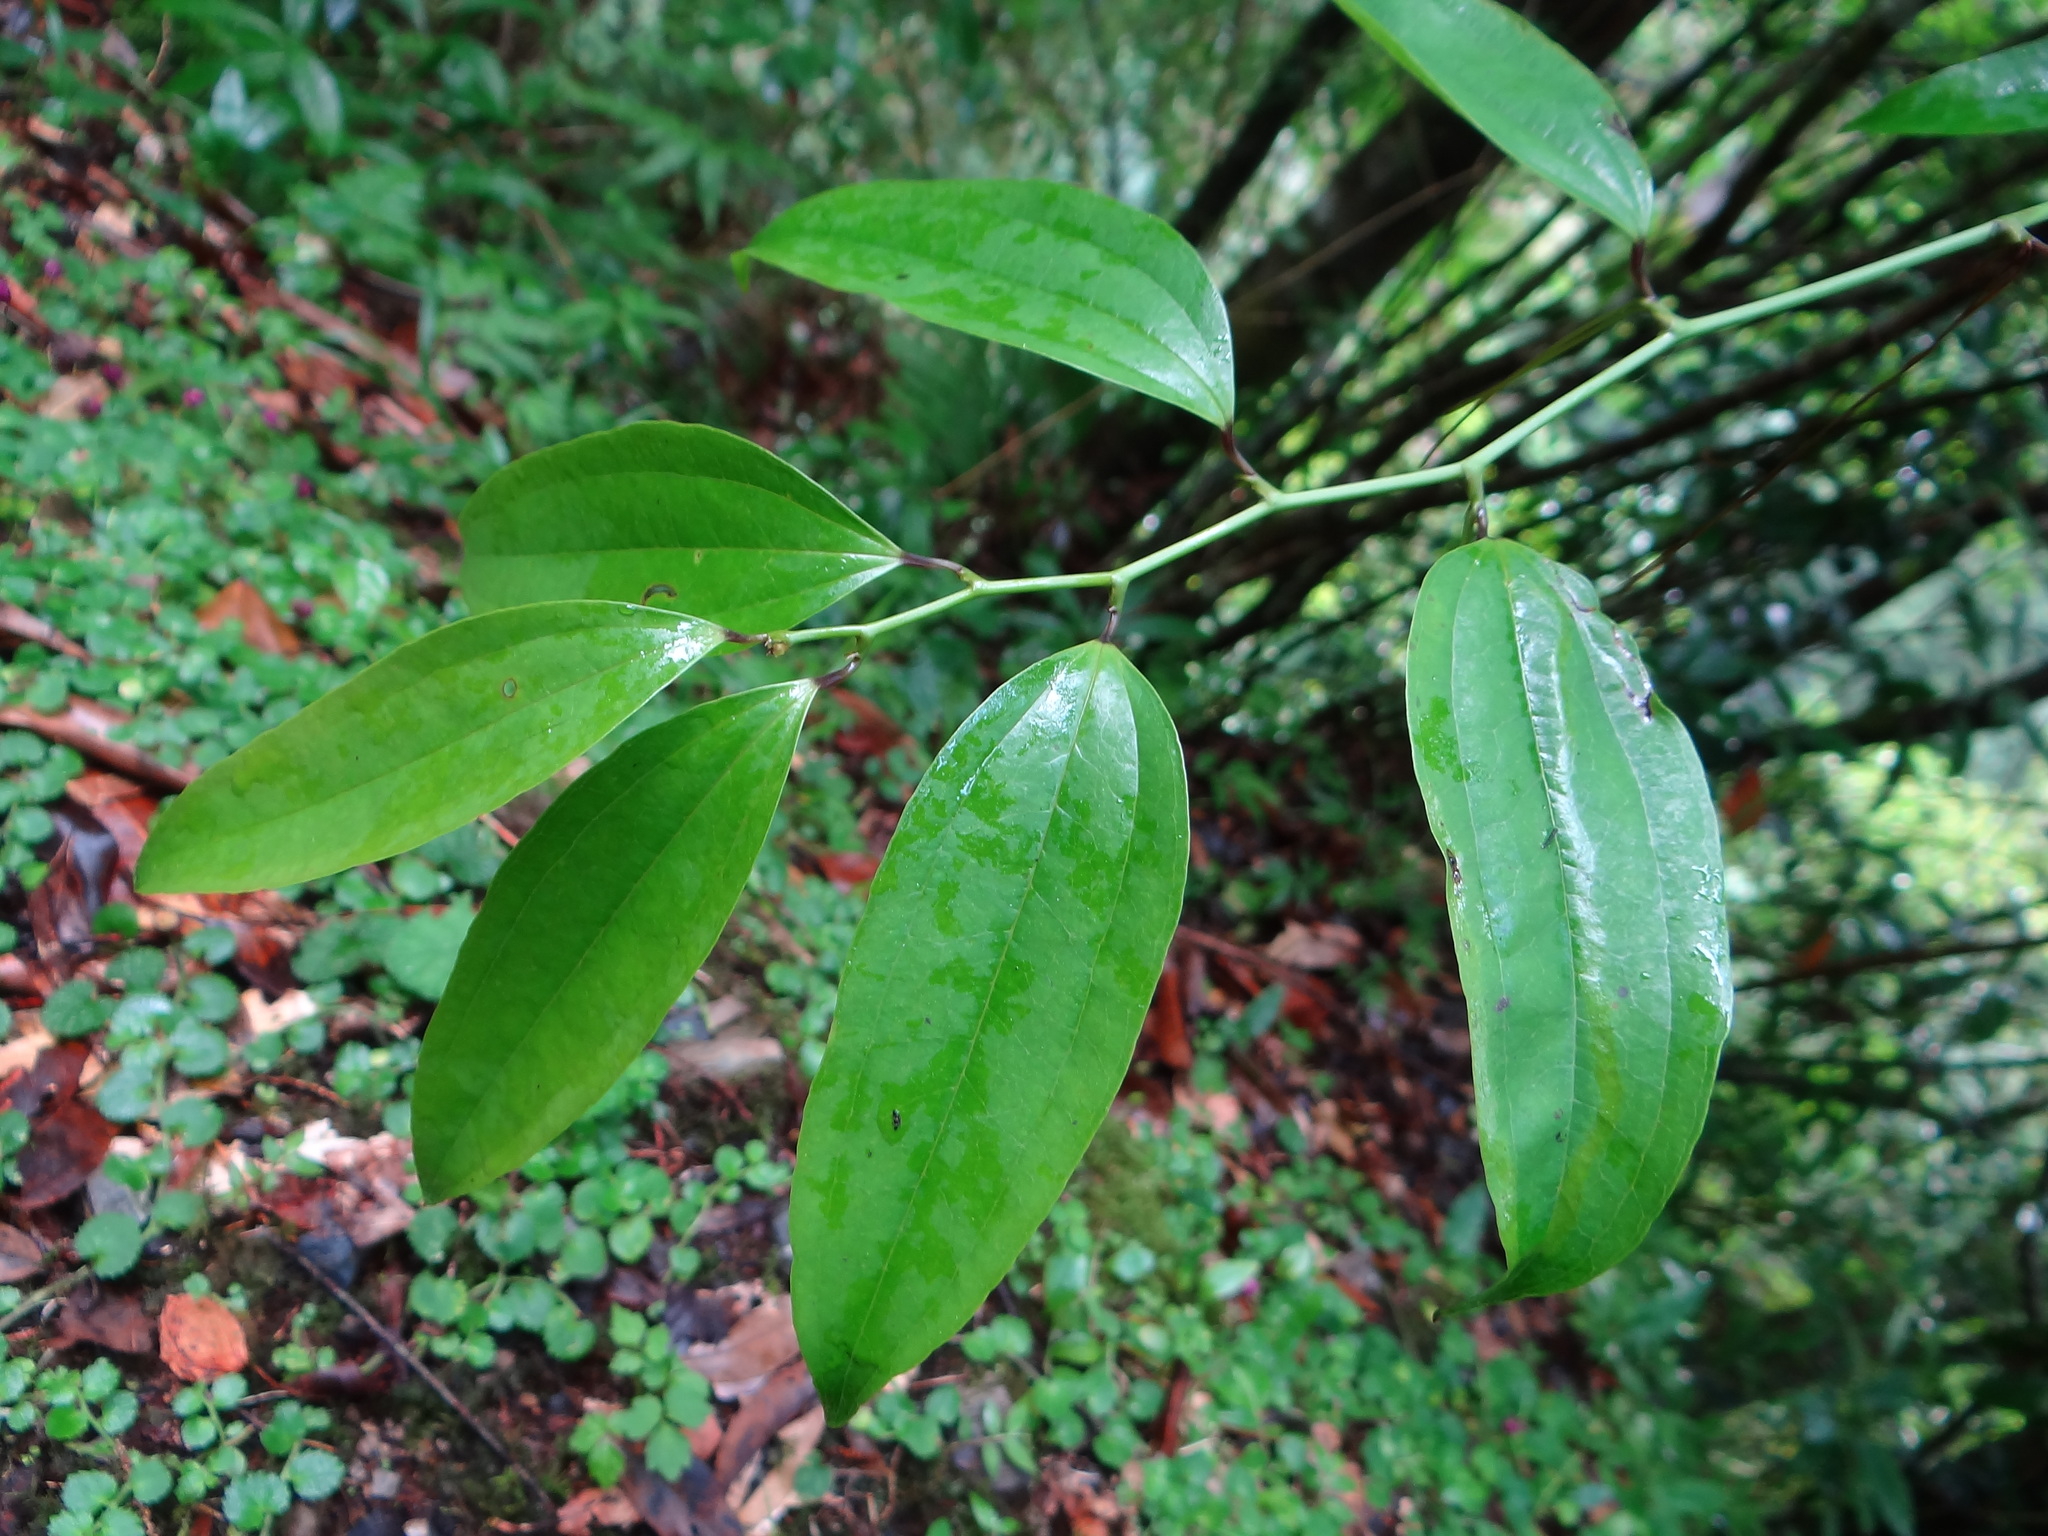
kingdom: Plantae
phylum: Tracheophyta
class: Liliopsida
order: Liliales
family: Smilacaceae
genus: Smilax
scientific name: Smilax lanceifolia
